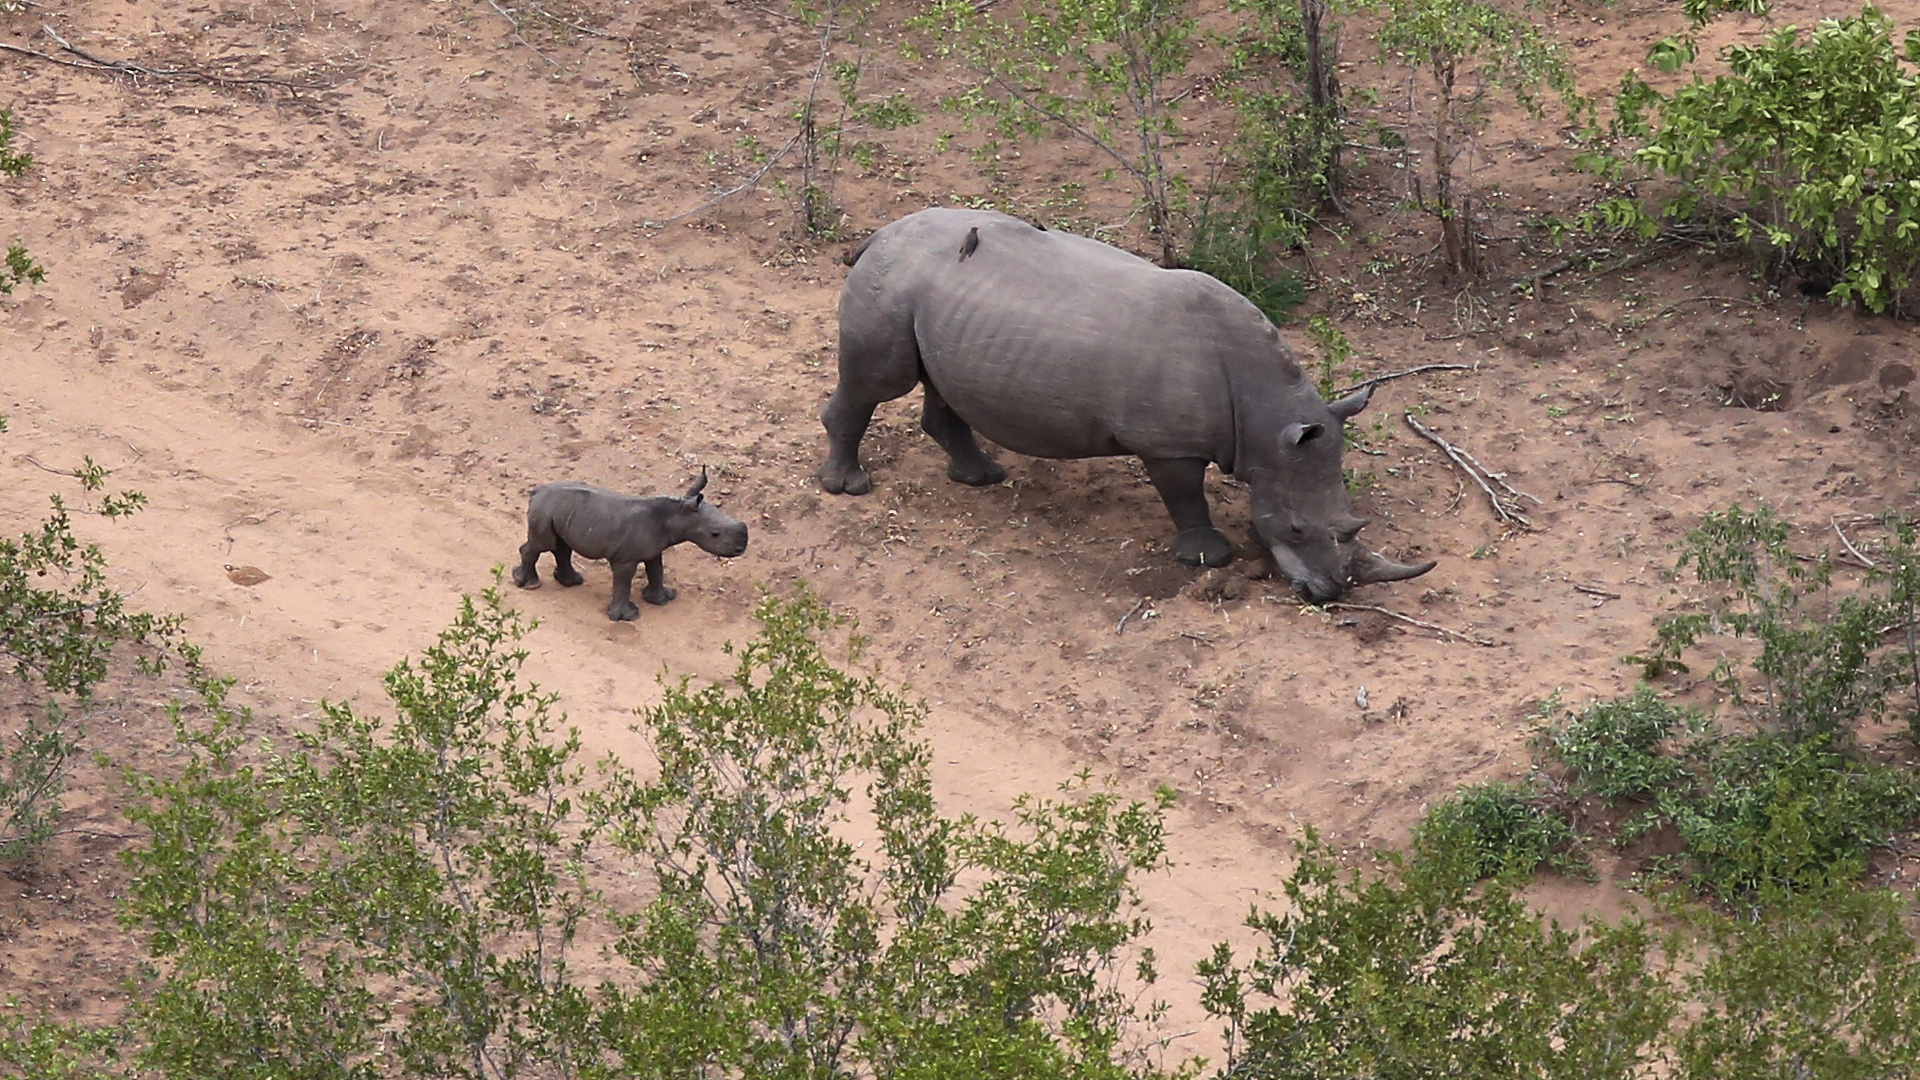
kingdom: Animalia
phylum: Chordata
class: Mammalia
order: Perissodactyla
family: Rhinocerotidae
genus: Ceratotherium
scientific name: Ceratotherium simum
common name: White rhinoceros
